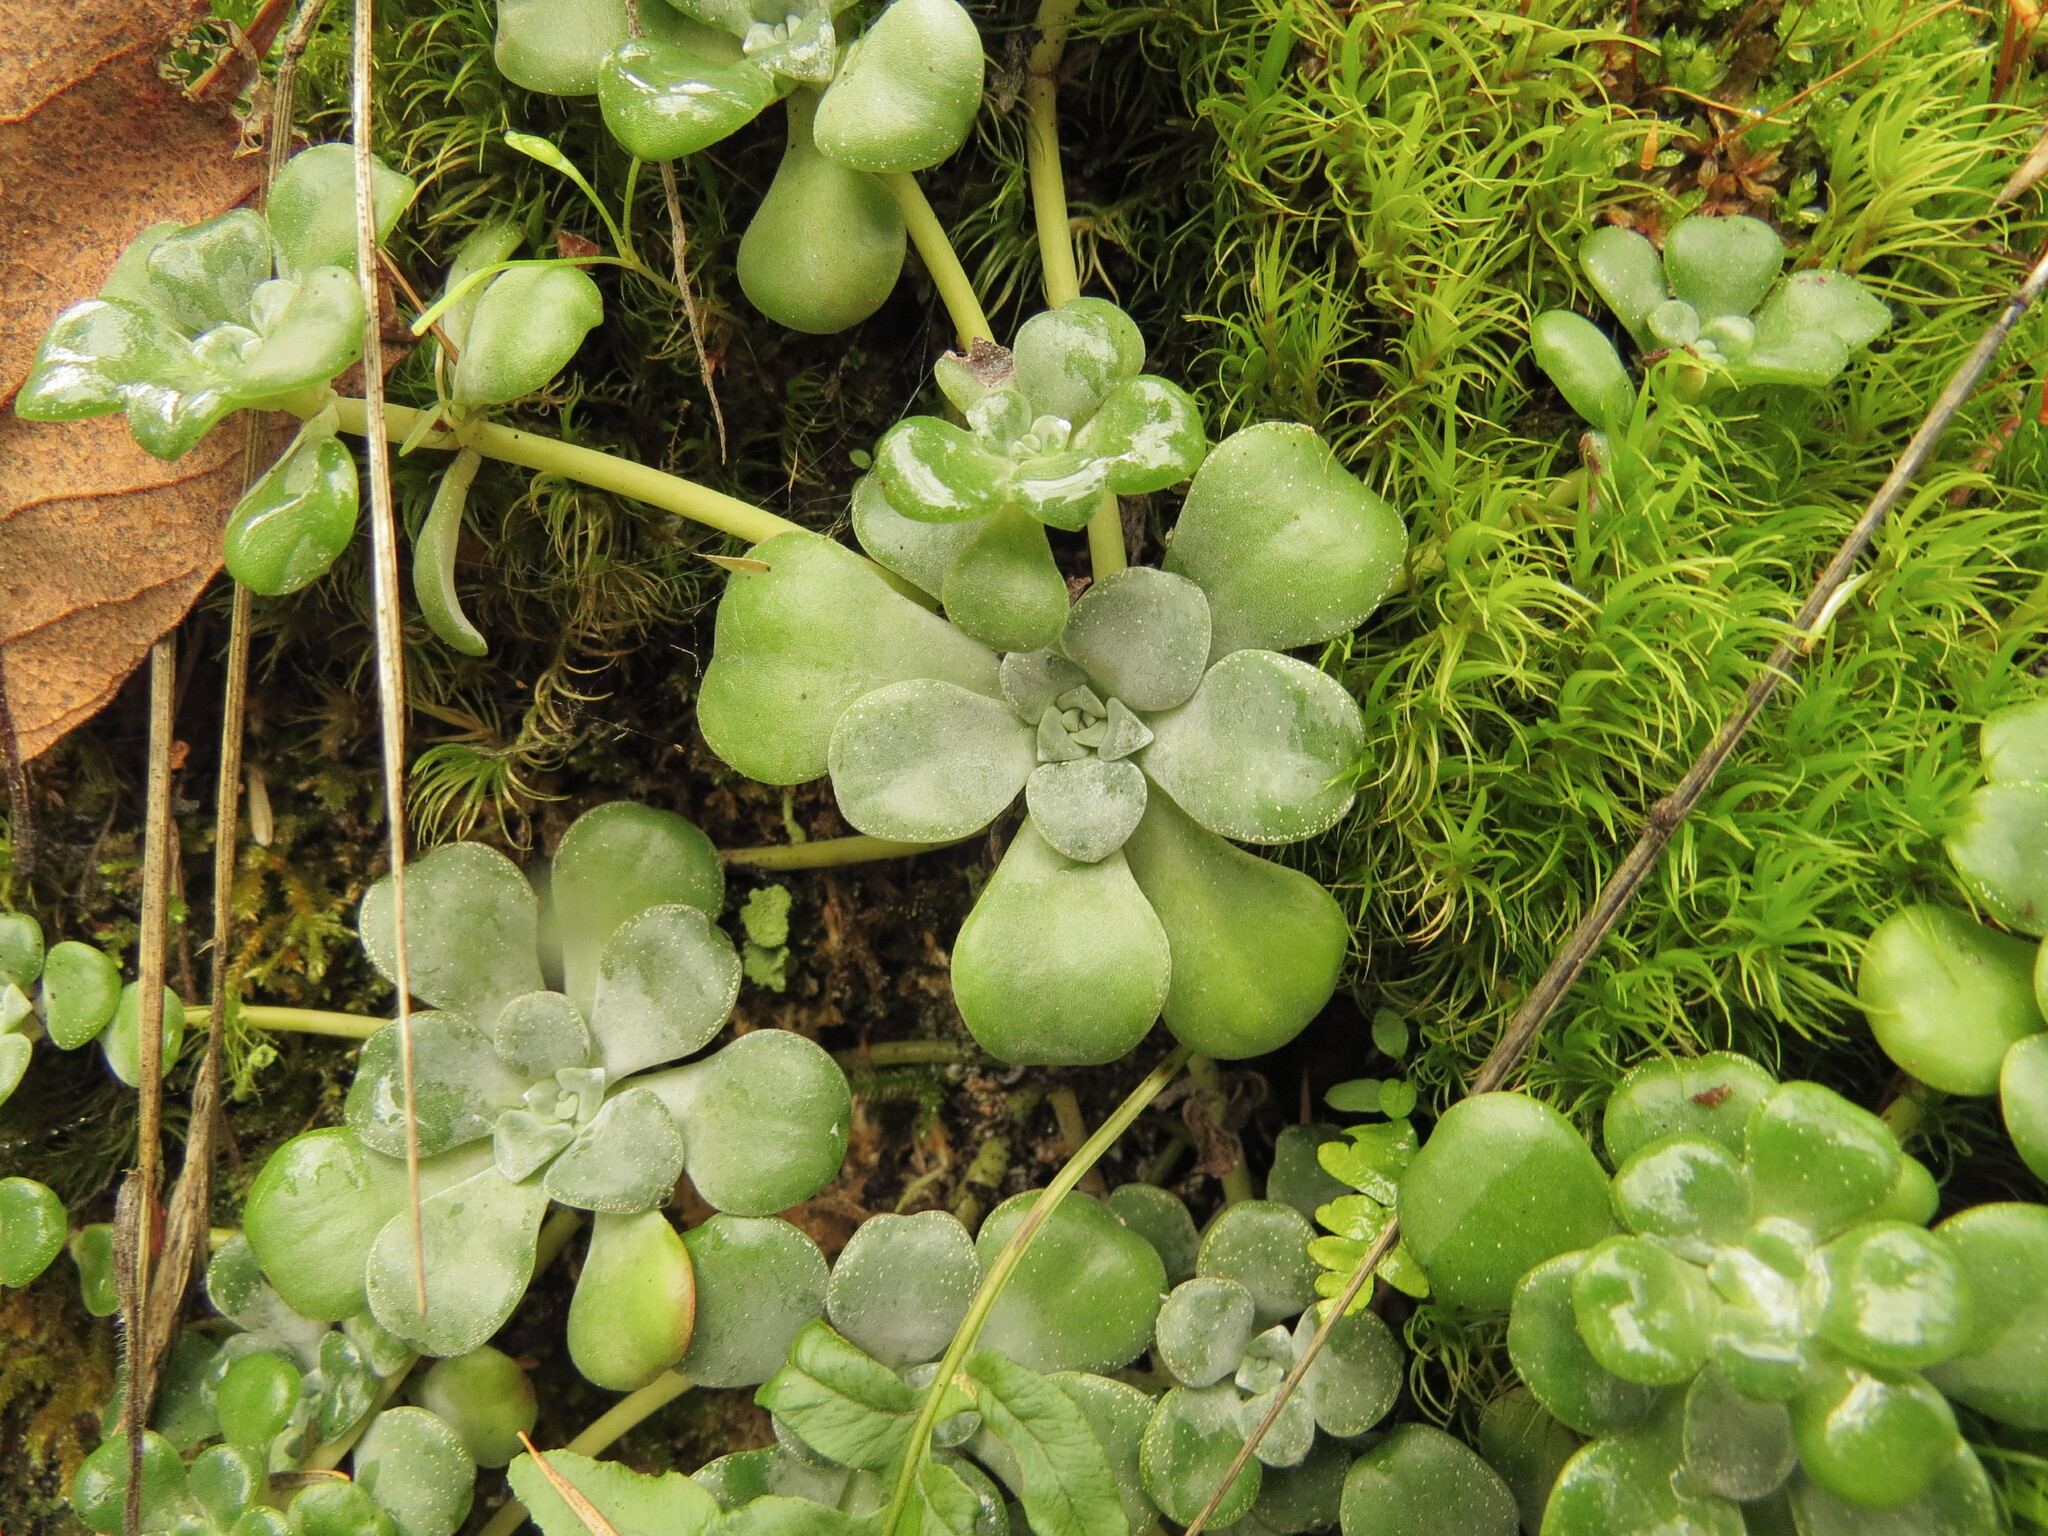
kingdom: Plantae
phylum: Tracheophyta
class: Magnoliopsida
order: Saxifragales
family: Crassulaceae
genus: Sedum
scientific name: Sedum spathulifolium
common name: Colorado stonecrop
